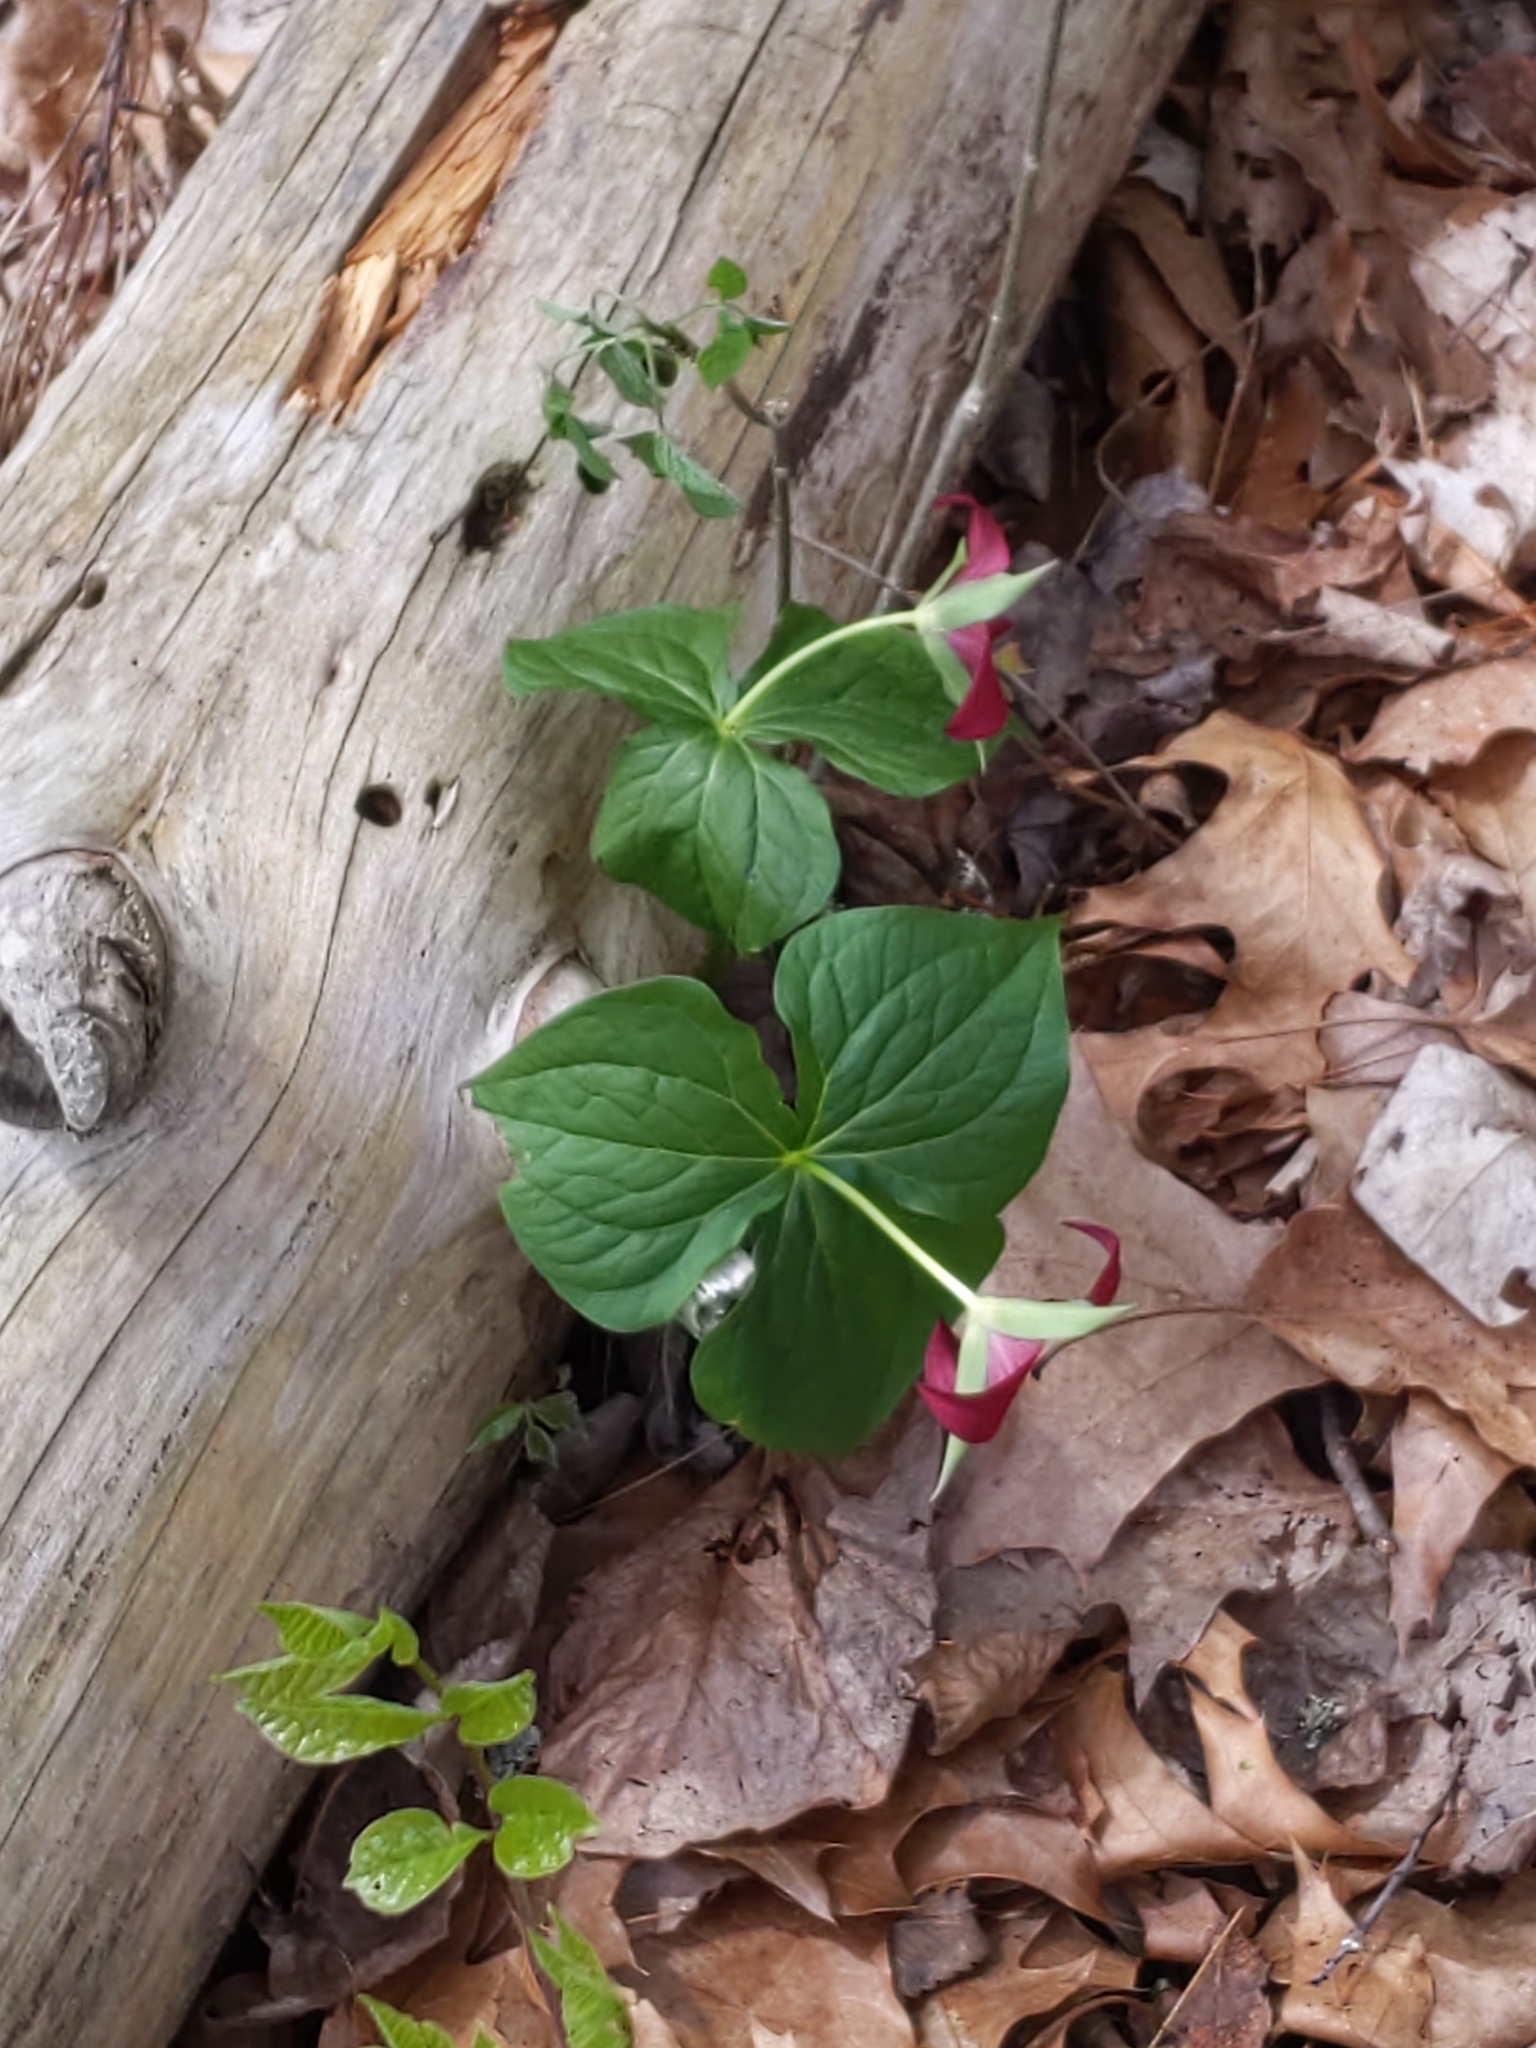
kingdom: Plantae
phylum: Tracheophyta
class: Liliopsida
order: Liliales
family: Melanthiaceae
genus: Trillium
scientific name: Trillium erectum
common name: Purple trillium
